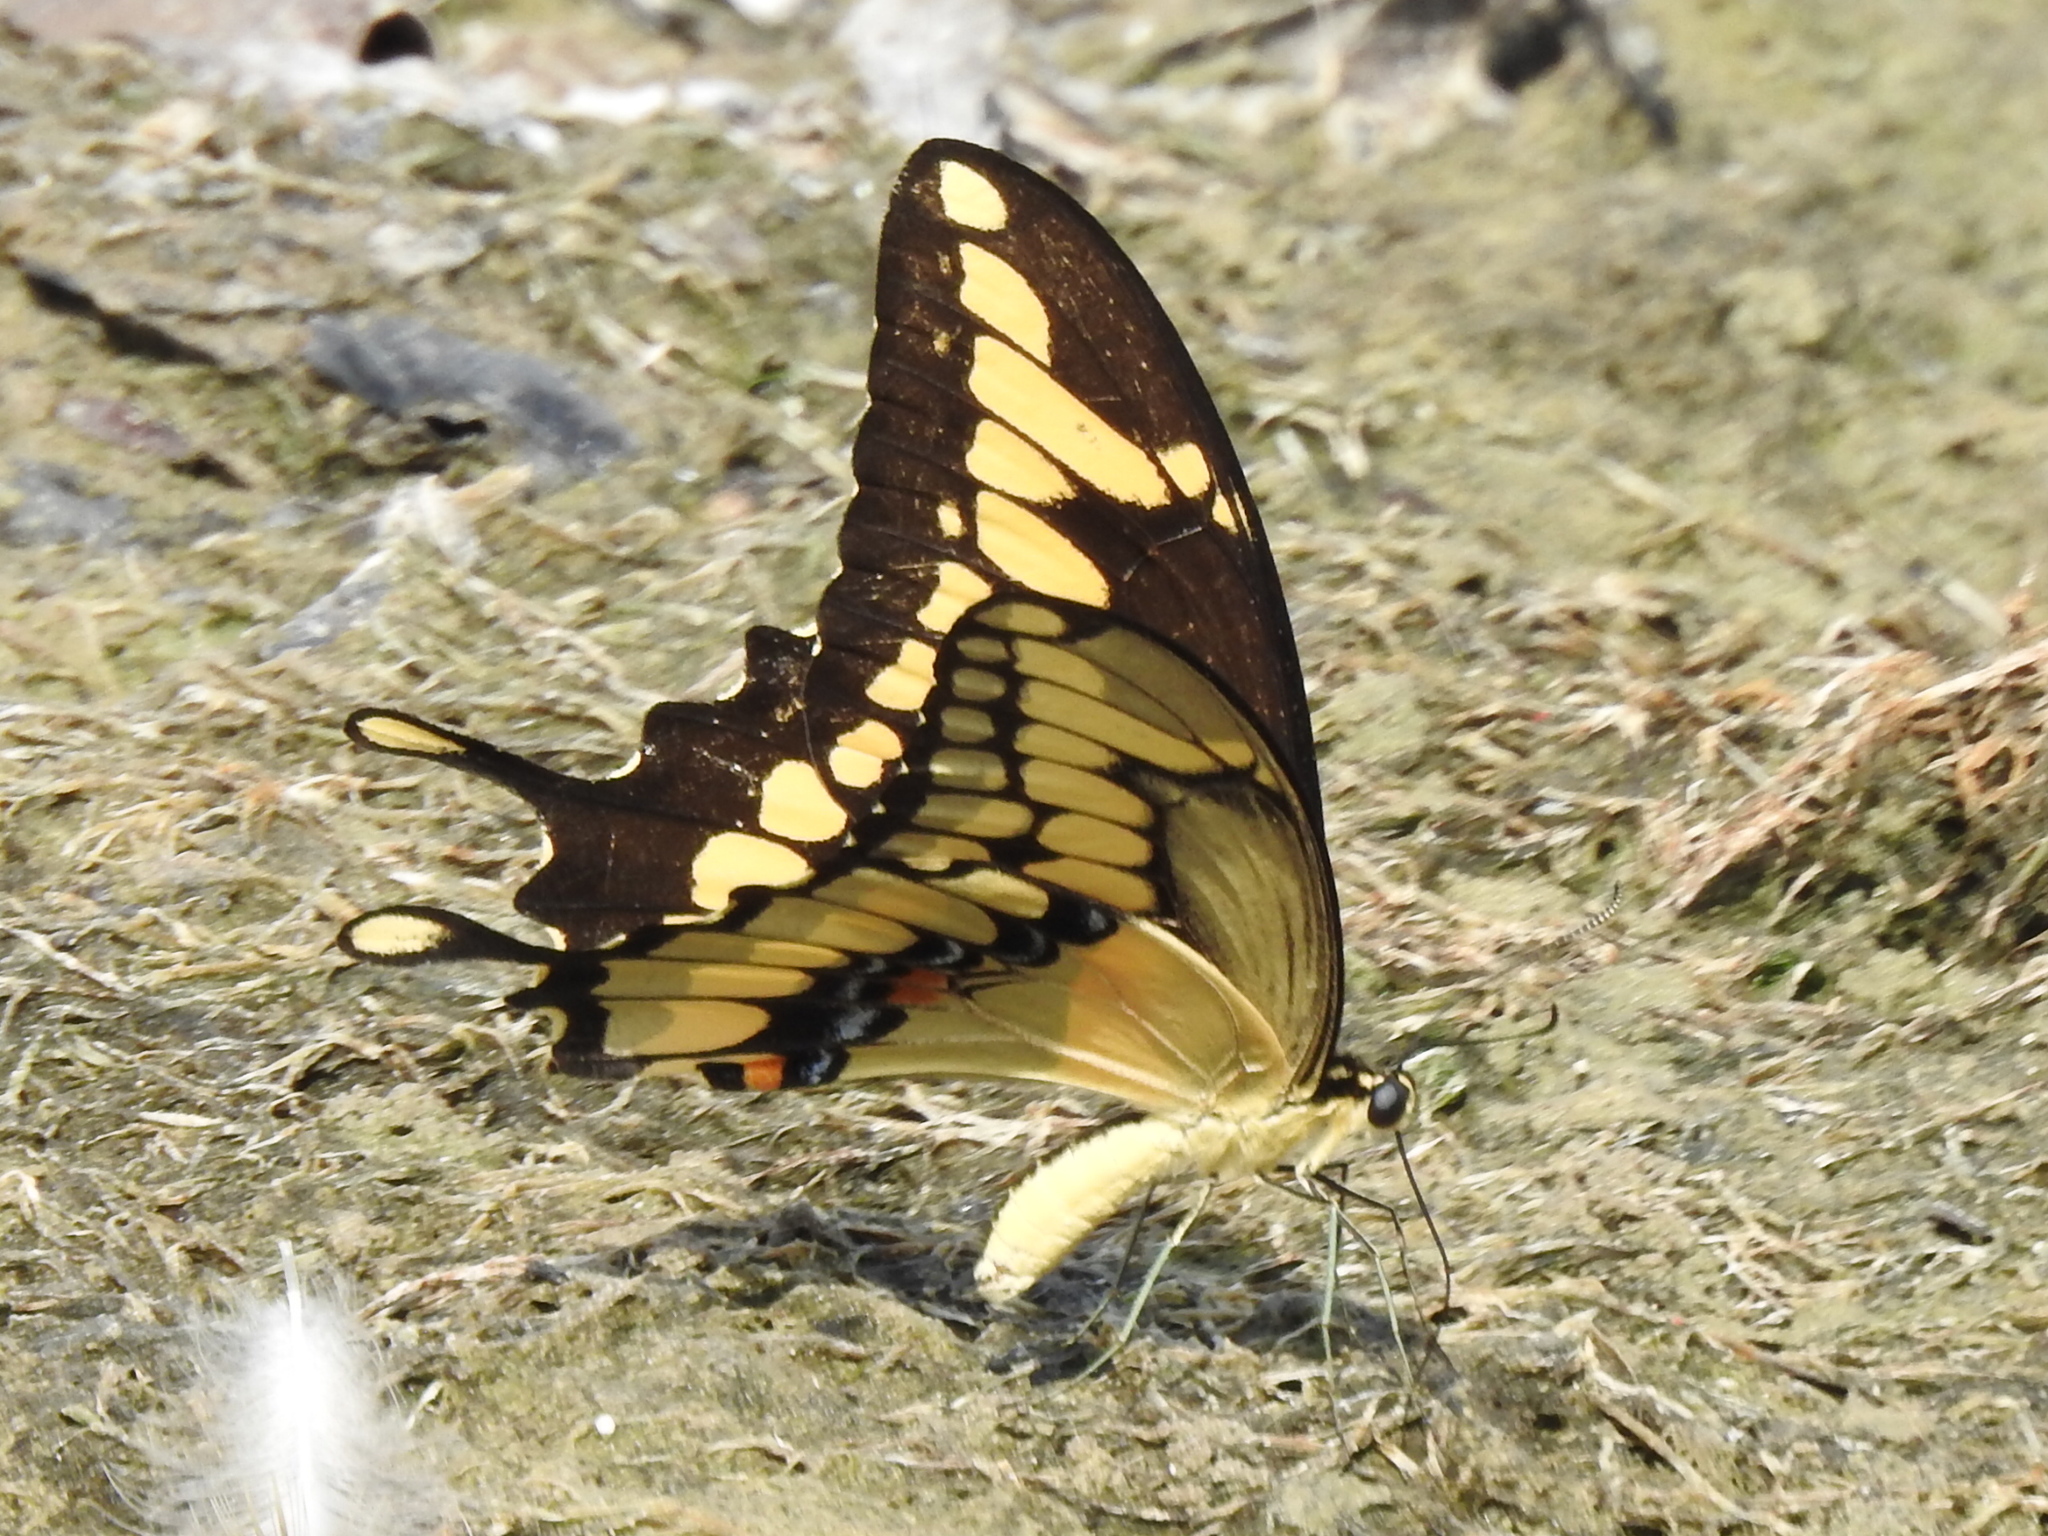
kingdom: Animalia
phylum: Arthropoda
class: Insecta
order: Lepidoptera
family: Papilionidae
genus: Papilio
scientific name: Papilio cresphontes
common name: Giant swallowtail
